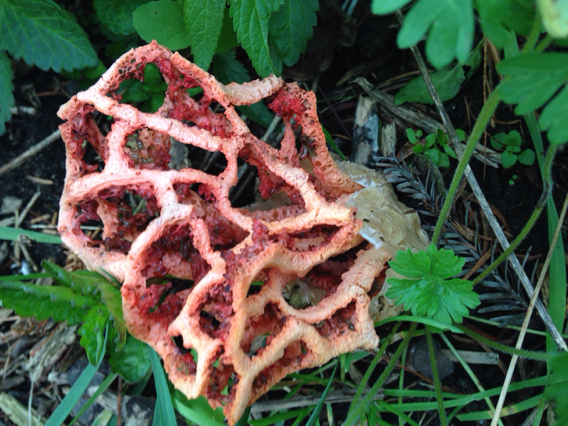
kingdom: Fungi
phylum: Basidiomycota
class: Agaricomycetes
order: Phallales
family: Phallaceae
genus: Clathrus
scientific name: Clathrus ruber
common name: Red cage
